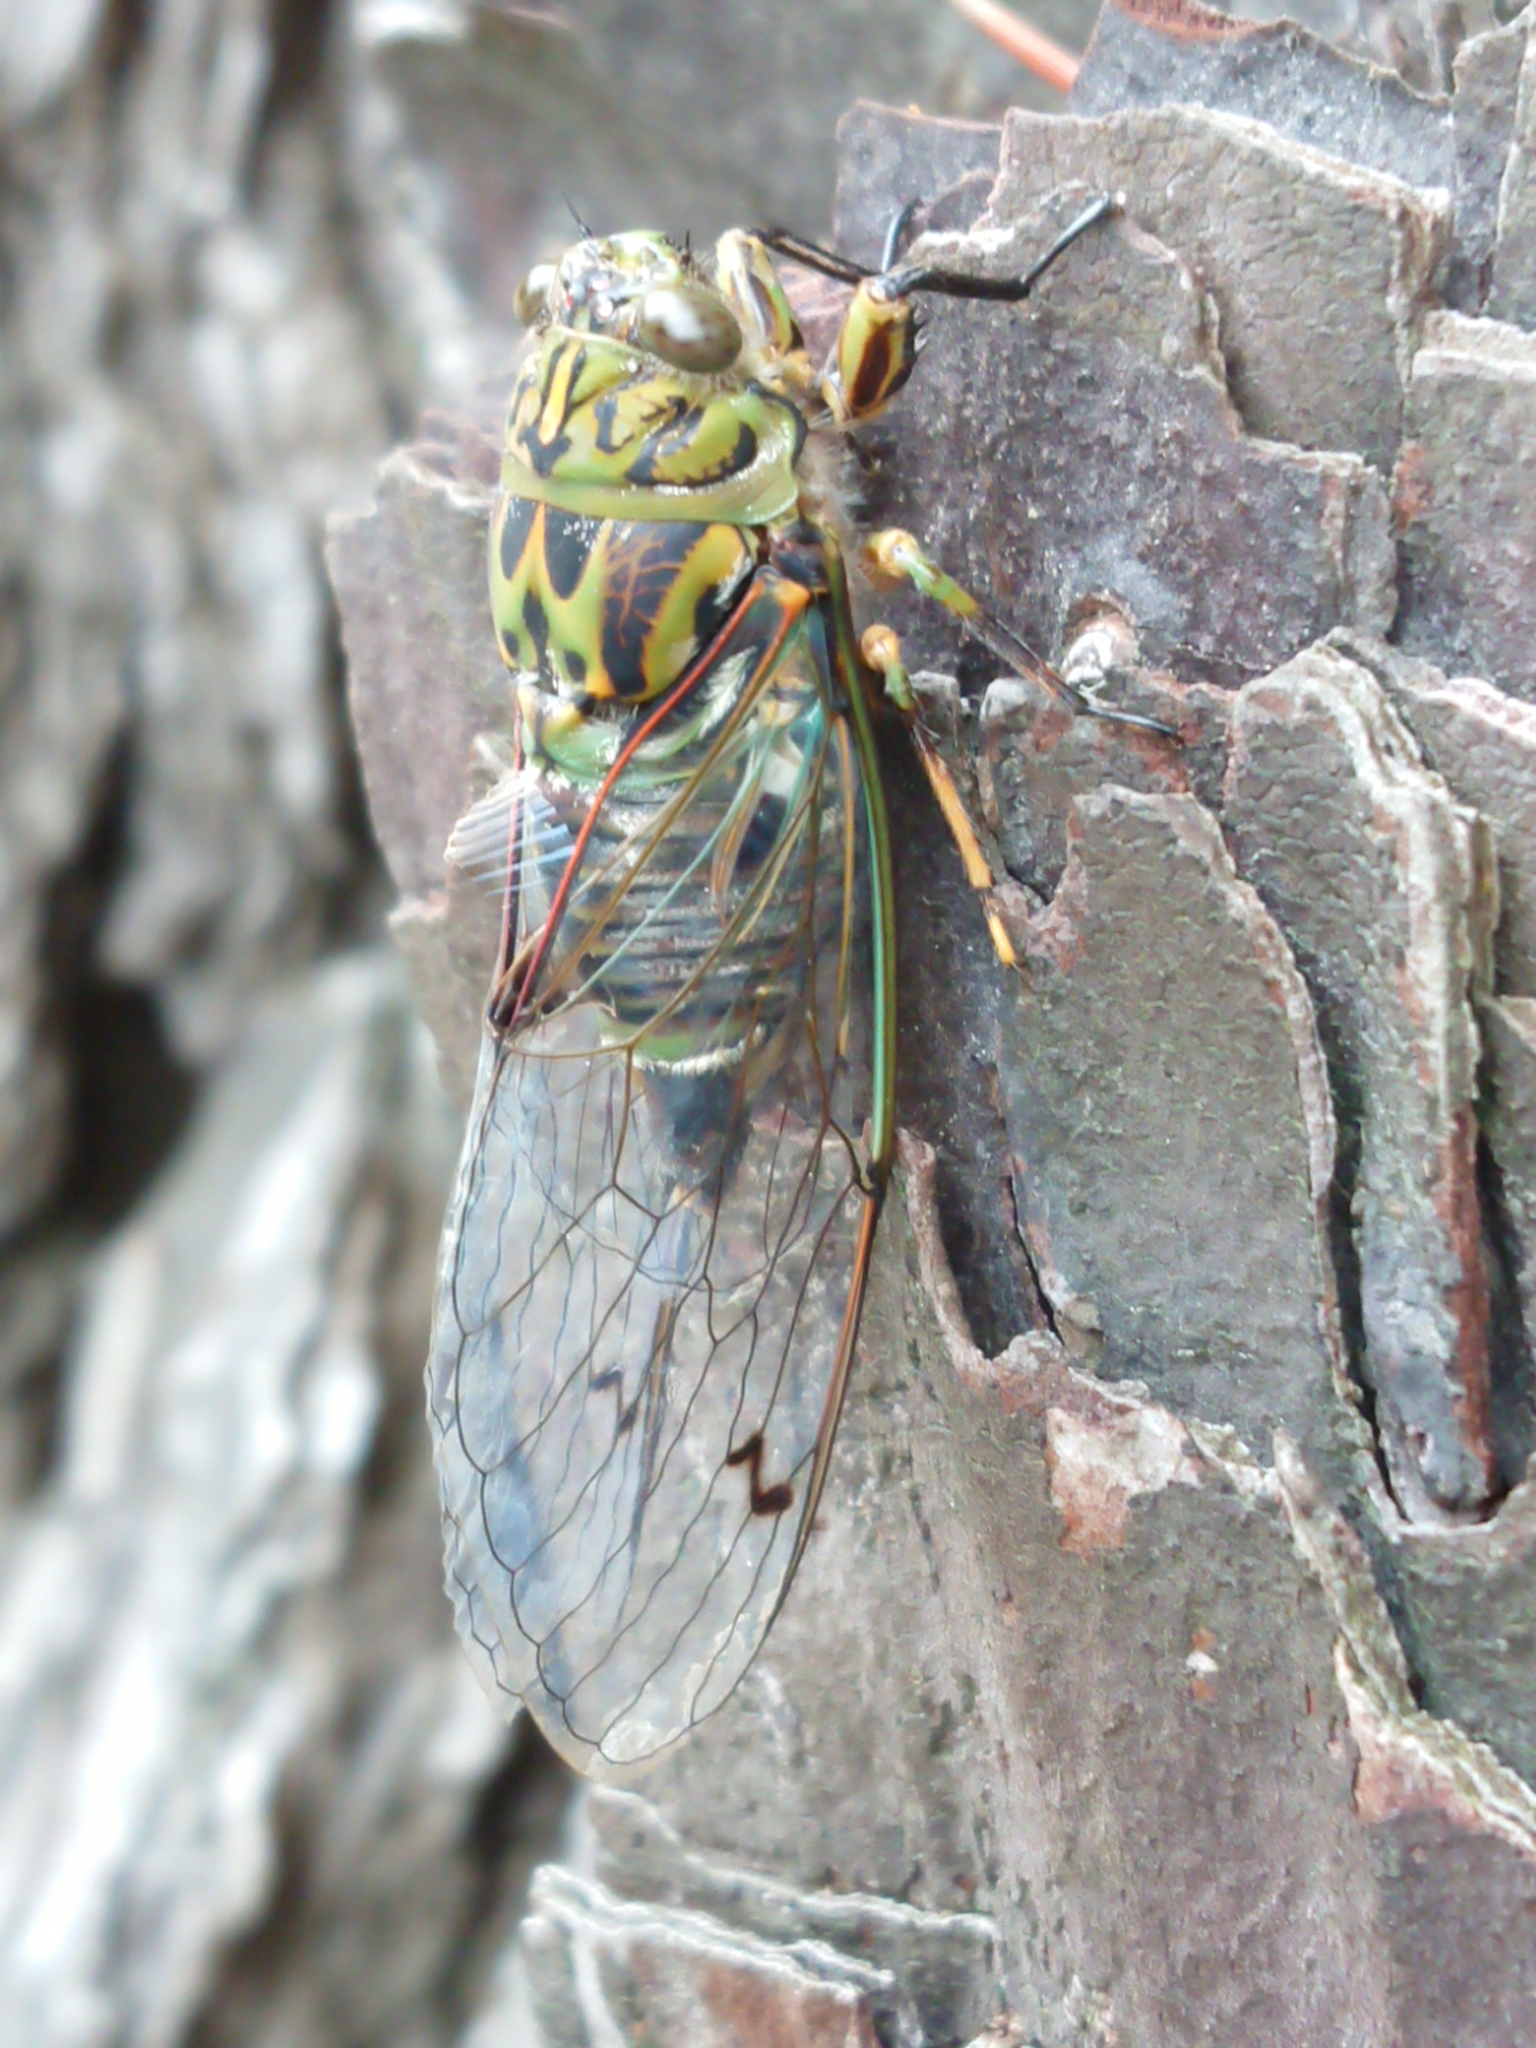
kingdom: Animalia
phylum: Arthropoda
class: Insecta
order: Hemiptera
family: Cicadidae
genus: Amphipsalta
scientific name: Amphipsalta zelandica
